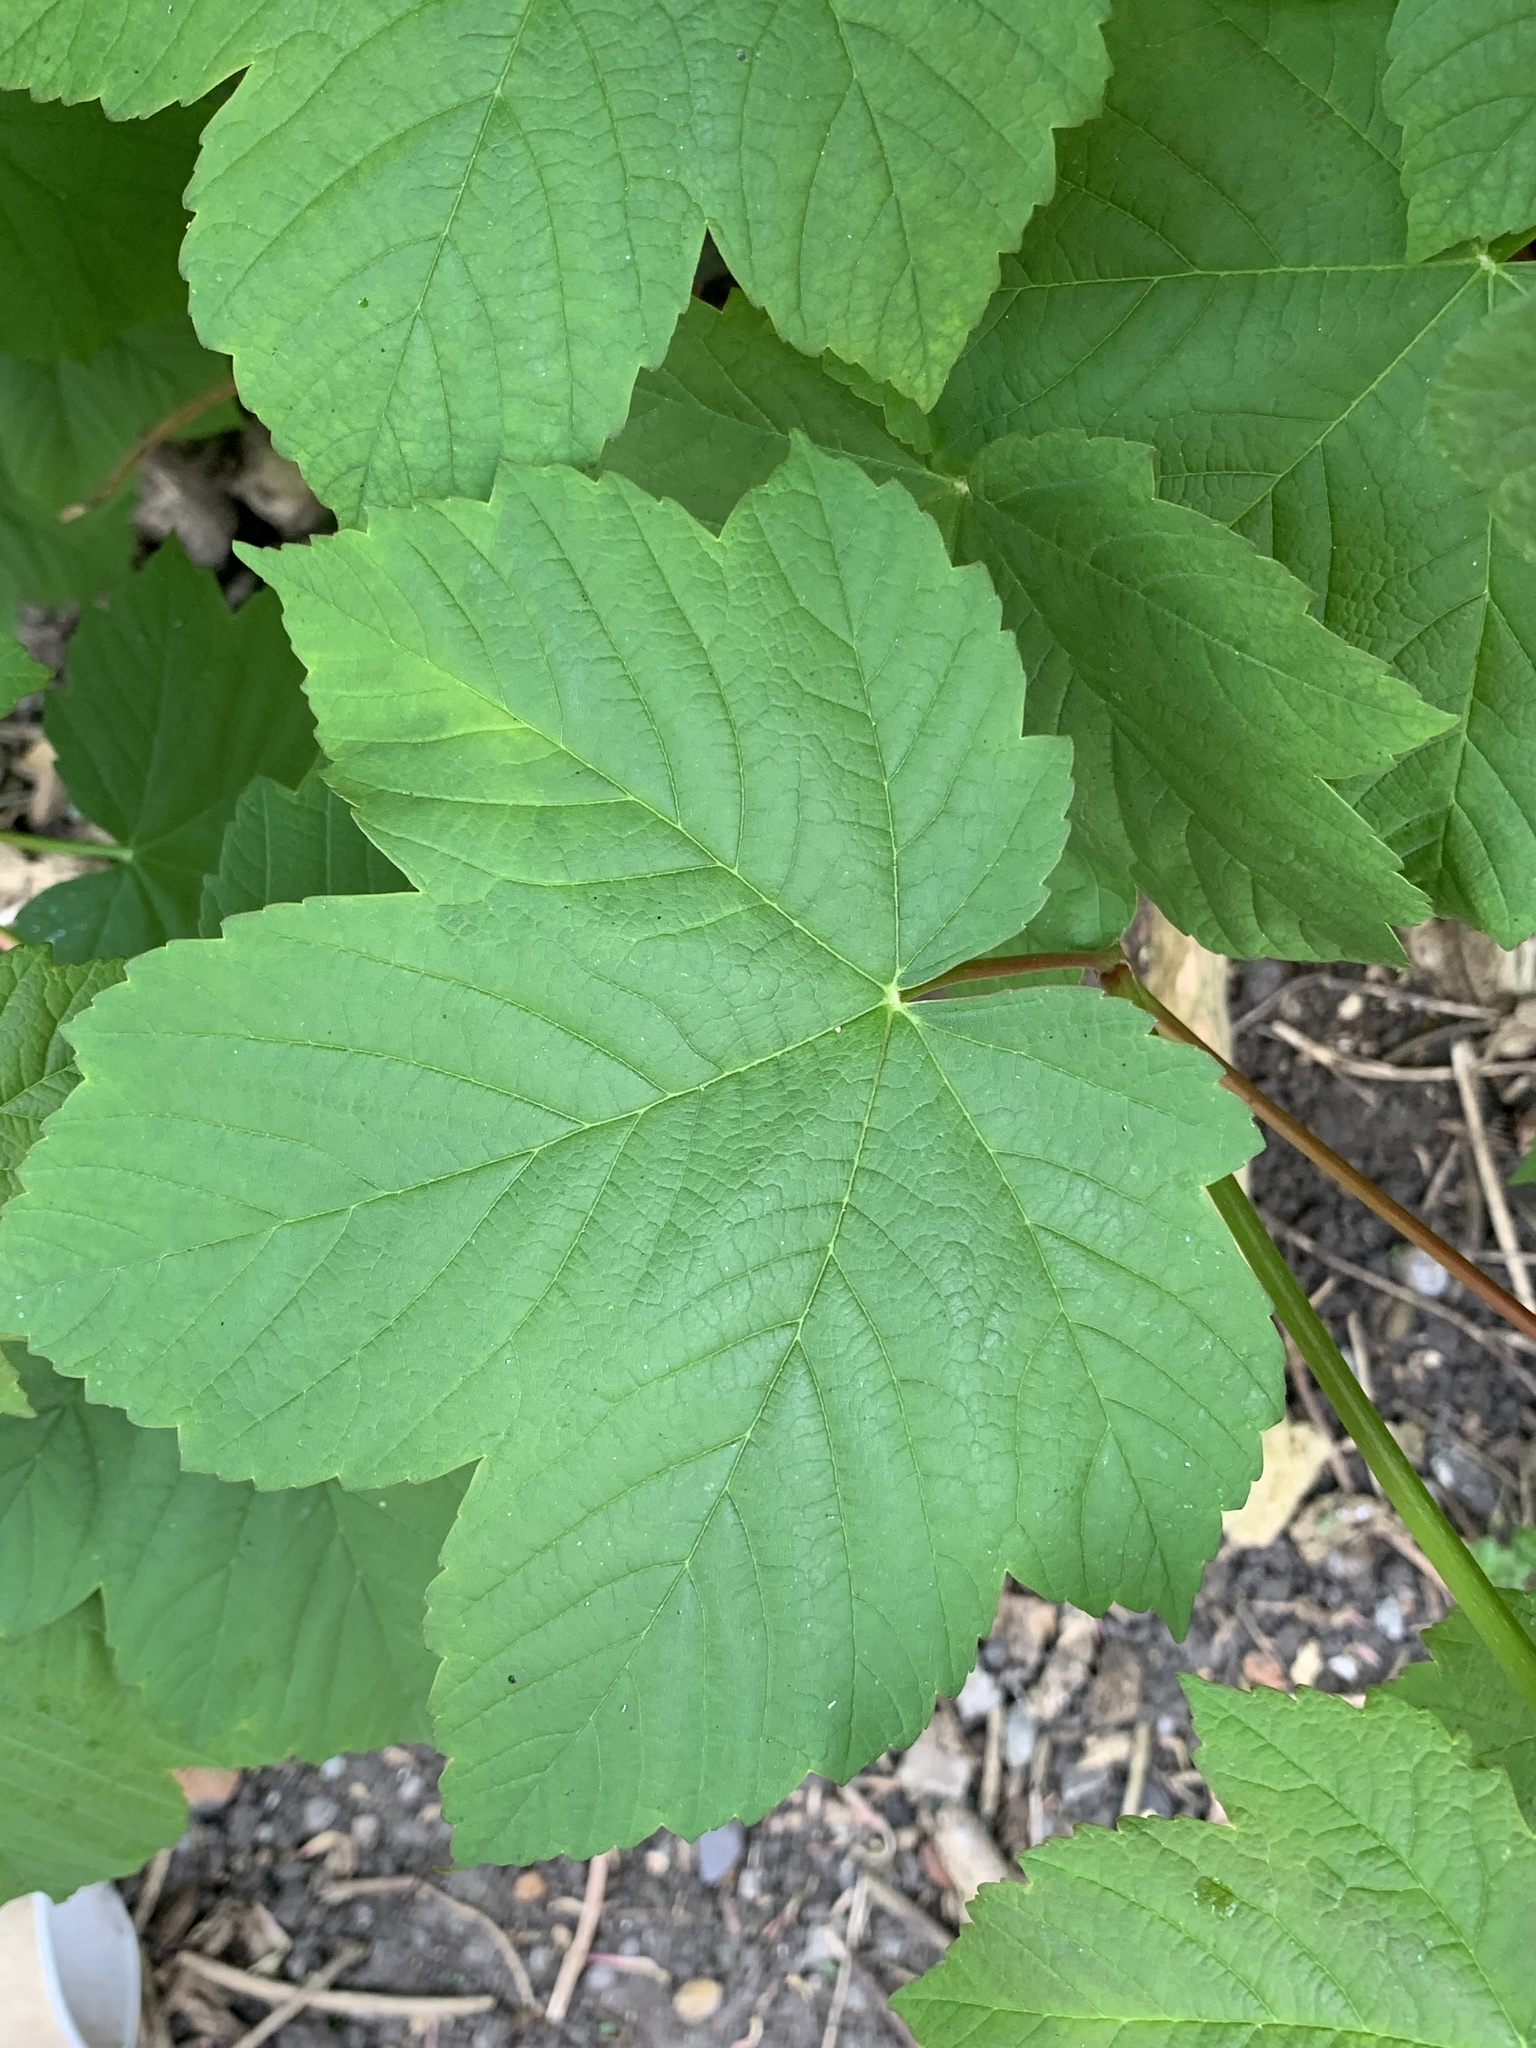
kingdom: Plantae
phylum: Tracheophyta
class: Magnoliopsida
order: Sapindales
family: Sapindaceae
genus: Acer
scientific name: Acer pseudoplatanus
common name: Sycamore
